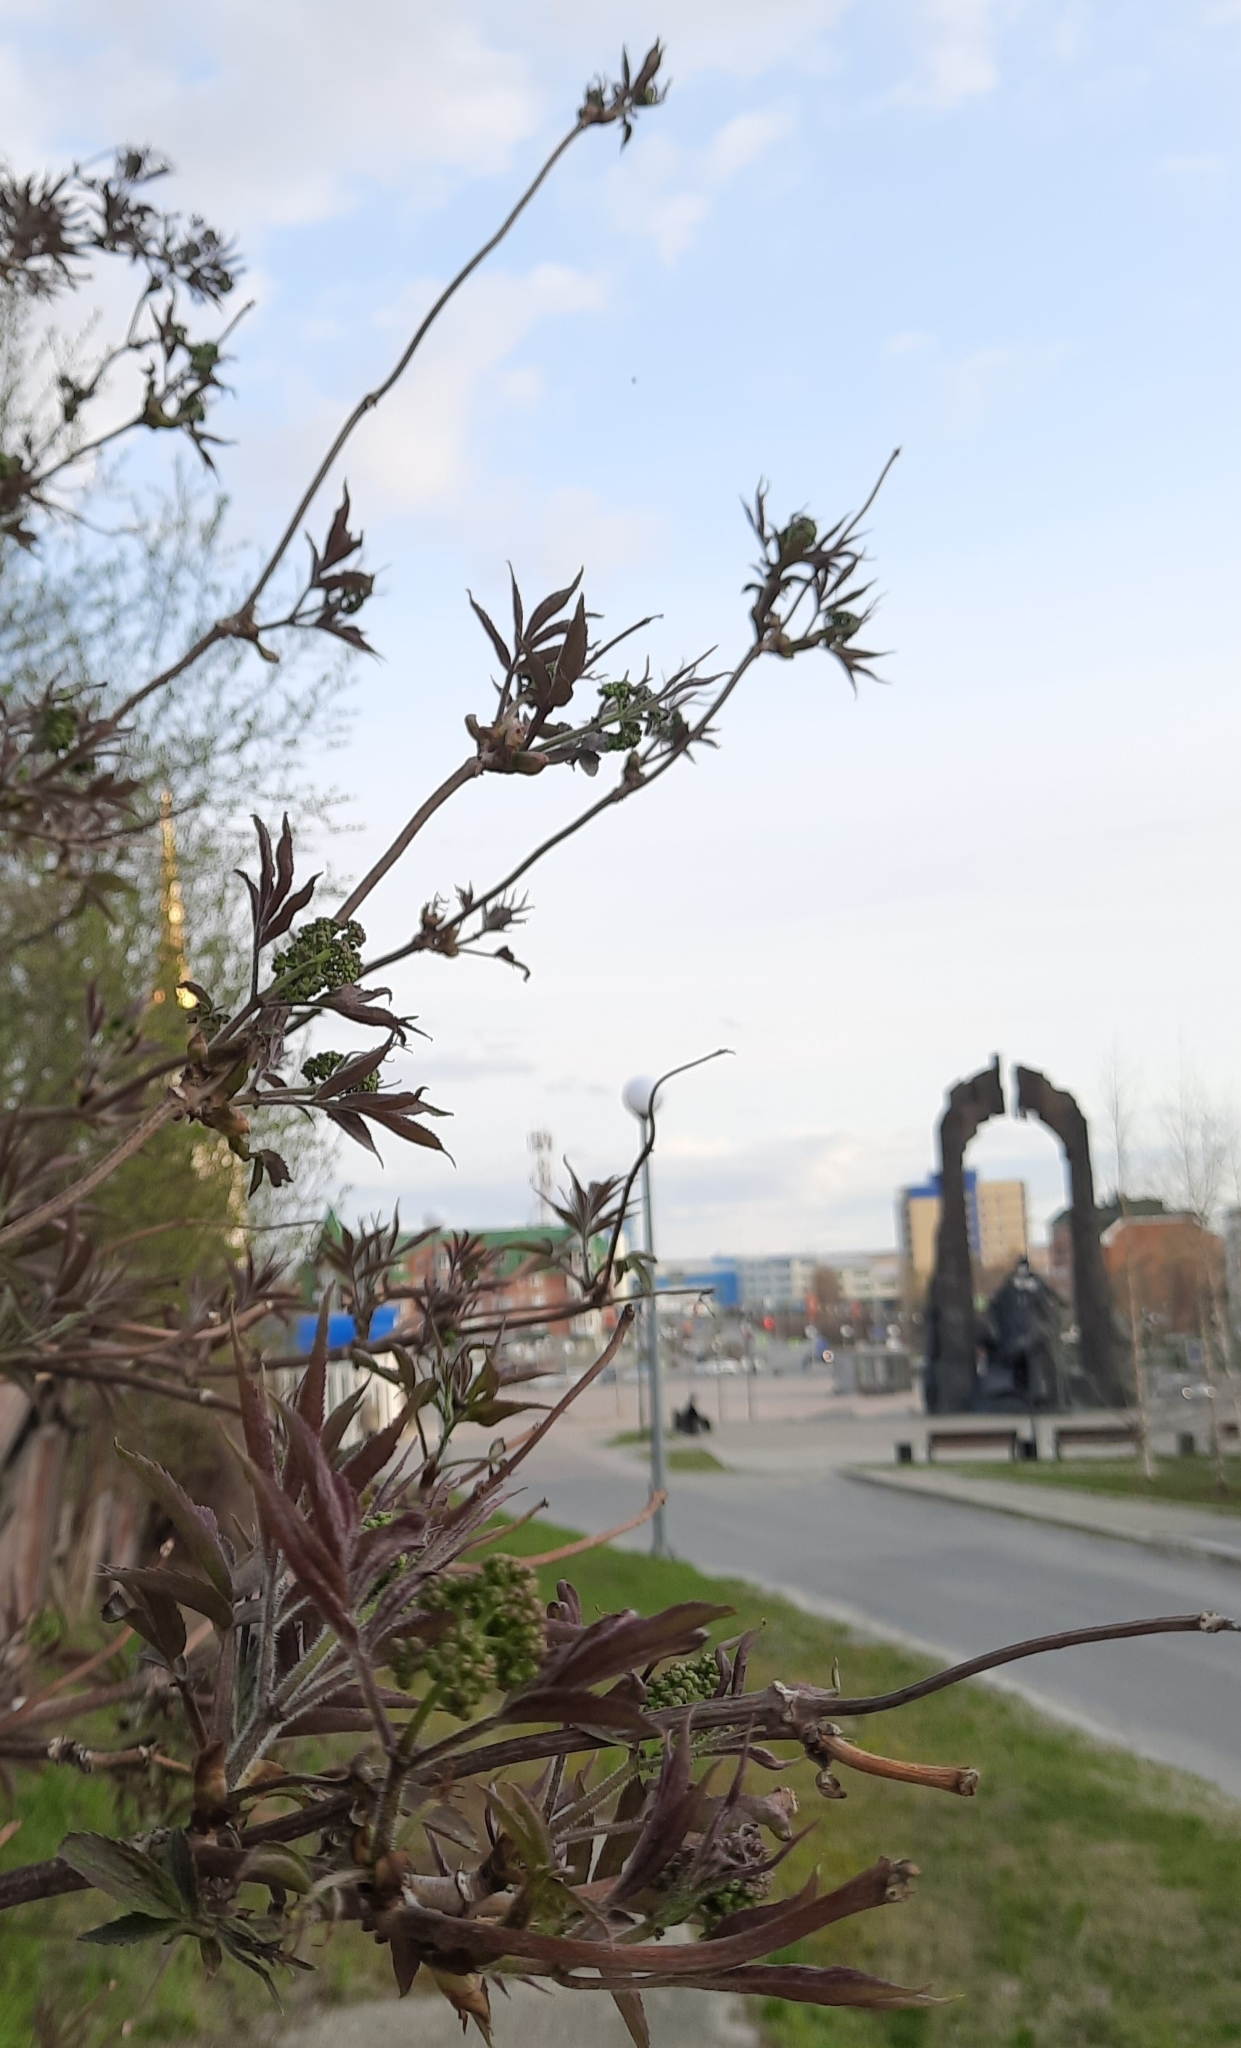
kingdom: Plantae
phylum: Tracheophyta
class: Magnoliopsida
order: Dipsacales
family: Viburnaceae
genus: Sambucus
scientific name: Sambucus sibirica
